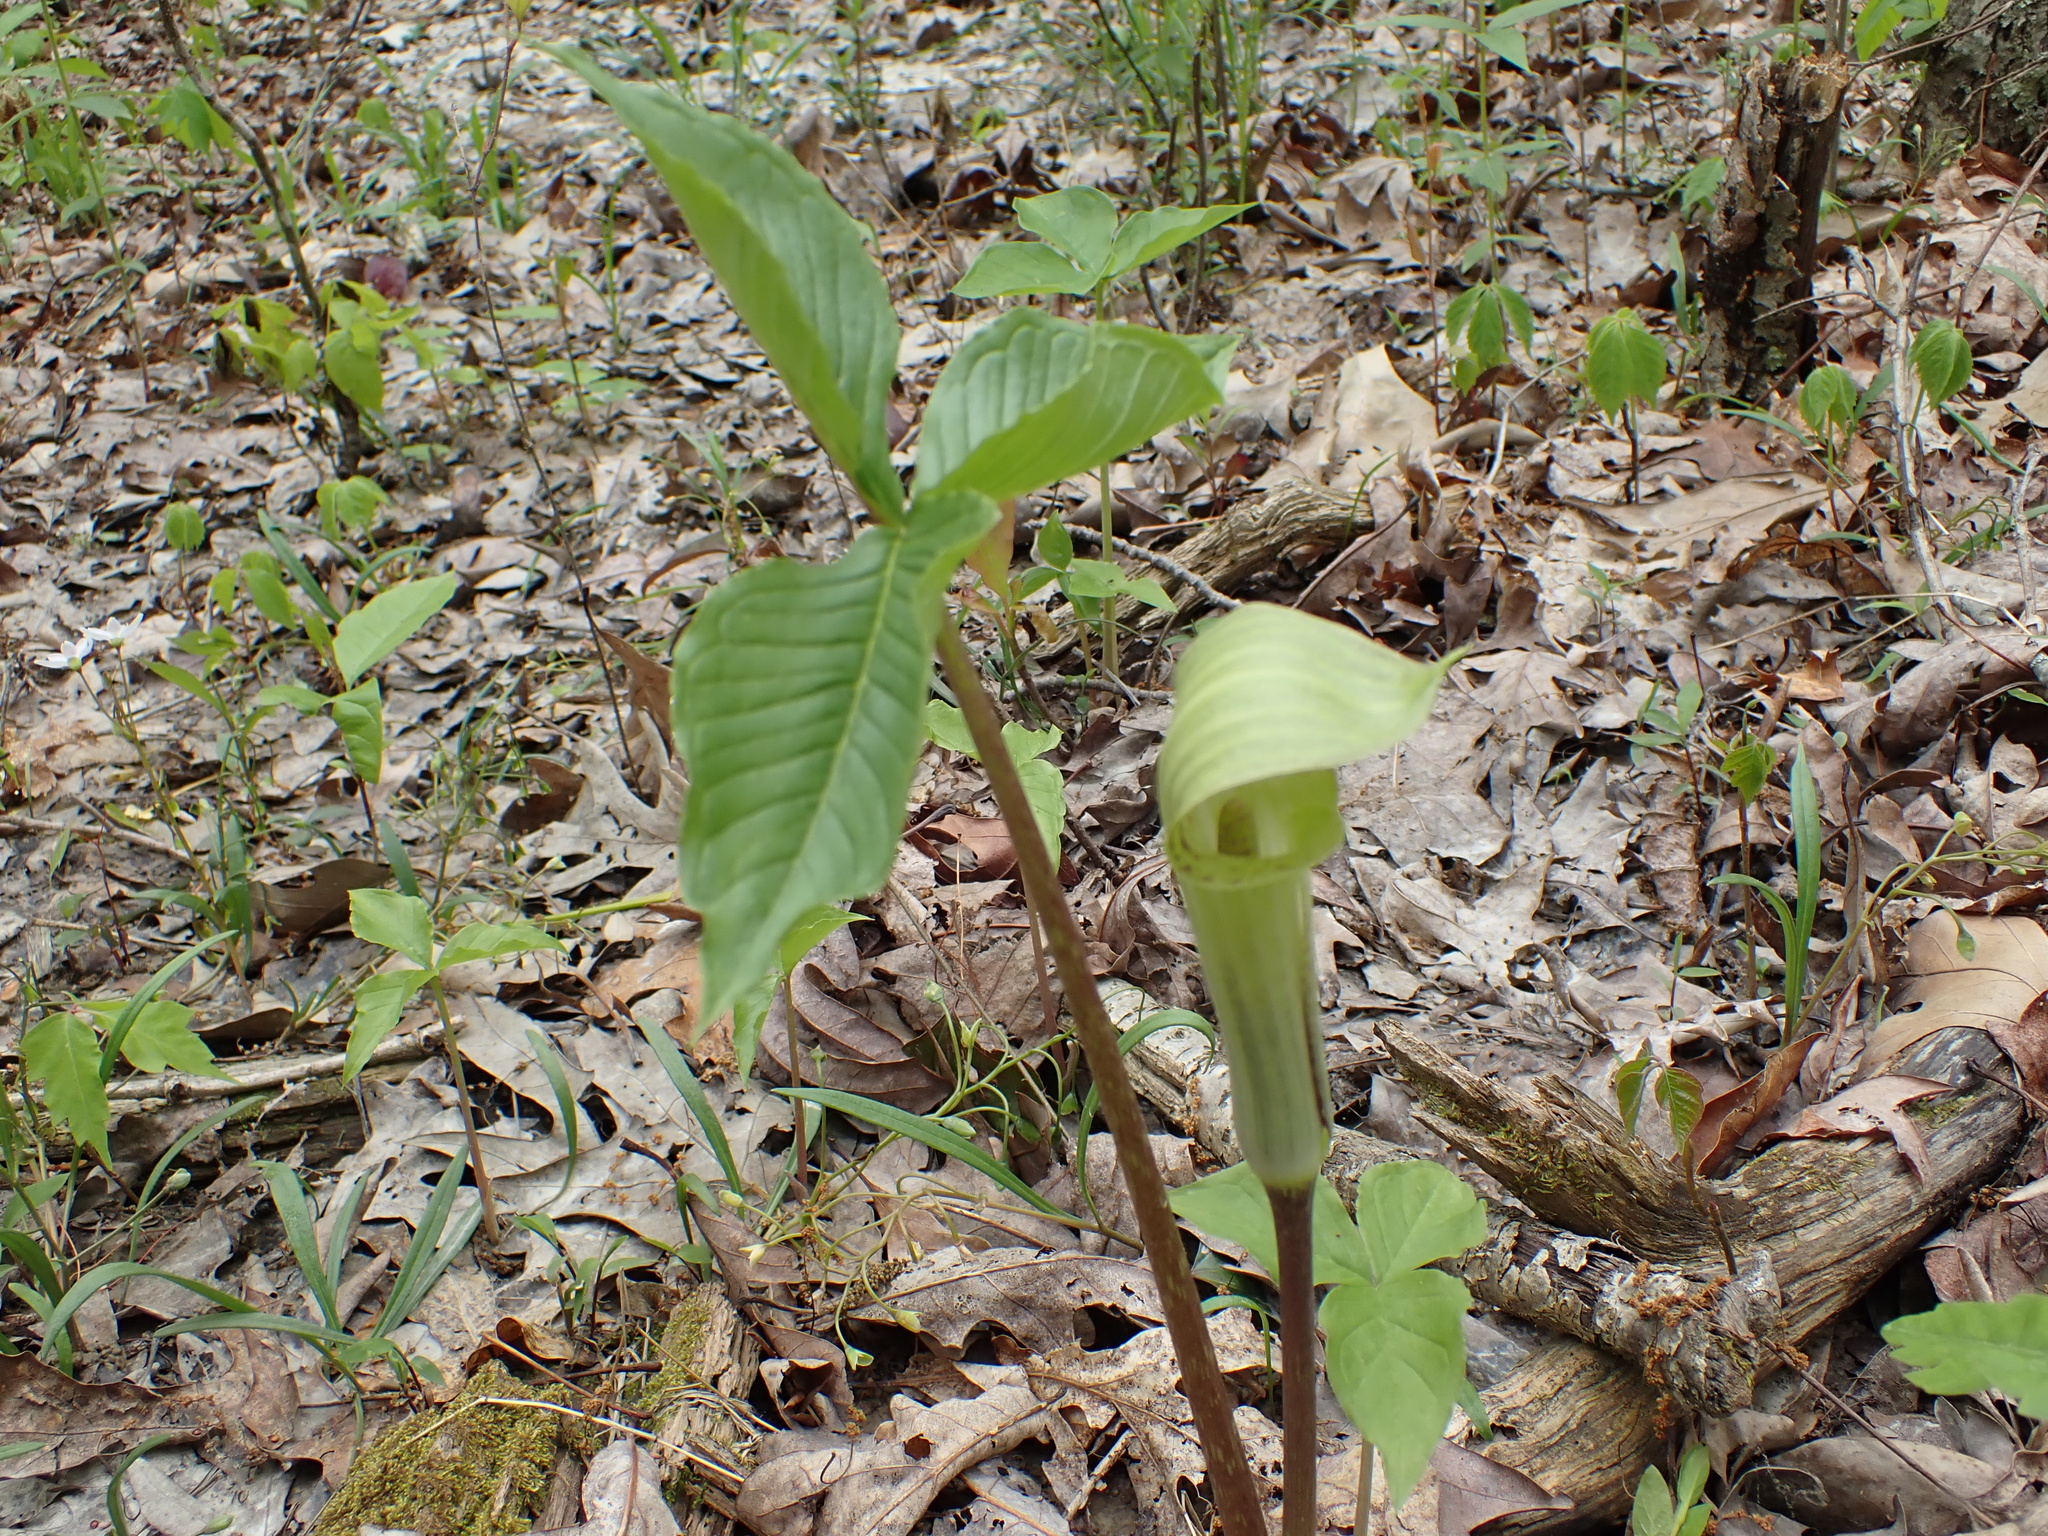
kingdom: Plantae
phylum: Tracheophyta
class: Liliopsida
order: Alismatales
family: Araceae
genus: Arisaema
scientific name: Arisaema triphyllum
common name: Jack-in-the-pulpit
